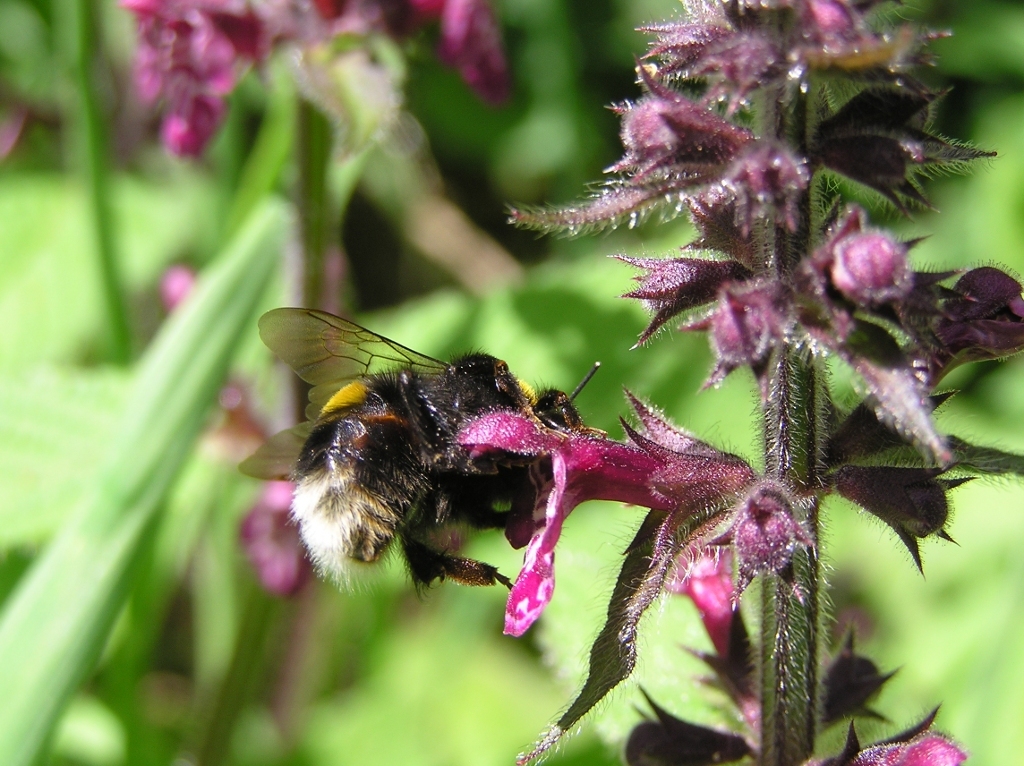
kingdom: Animalia
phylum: Arthropoda
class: Insecta
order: Hymenoptera
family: Apidae
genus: Bombus
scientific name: Bombus terrestris
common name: Buff-tailed bumblebee
